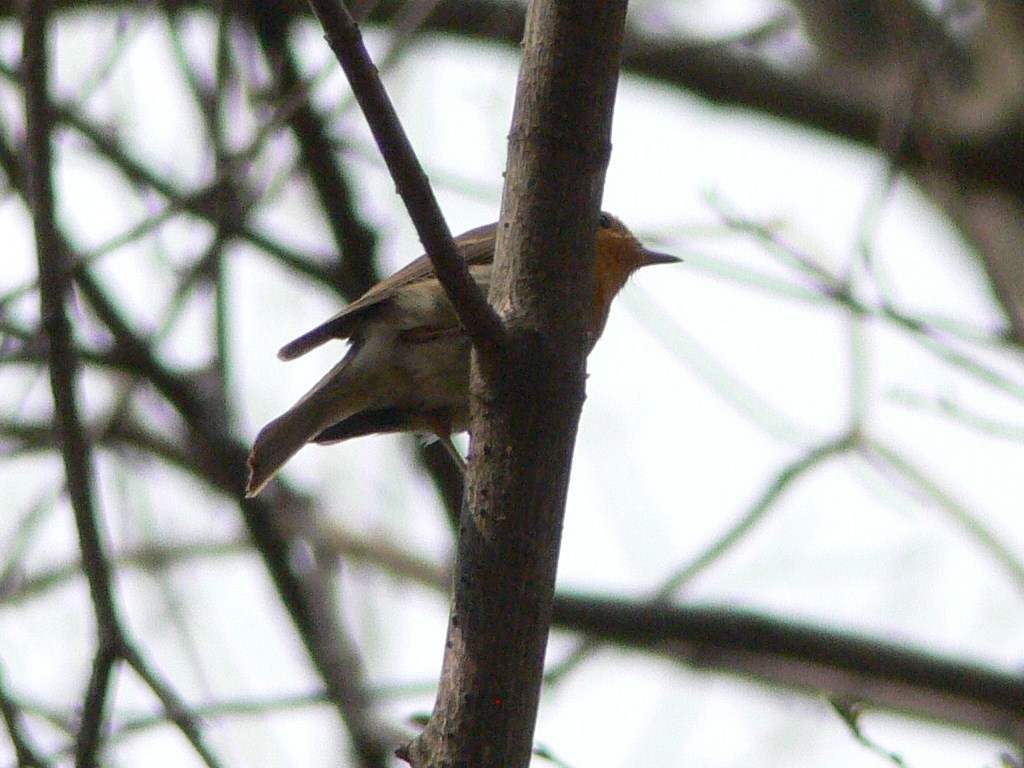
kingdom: Animalia
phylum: Chordata
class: Aves
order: Passeriformes
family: Muscicapidae
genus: Erithacus
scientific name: Erithacus rubecula
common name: European robin
